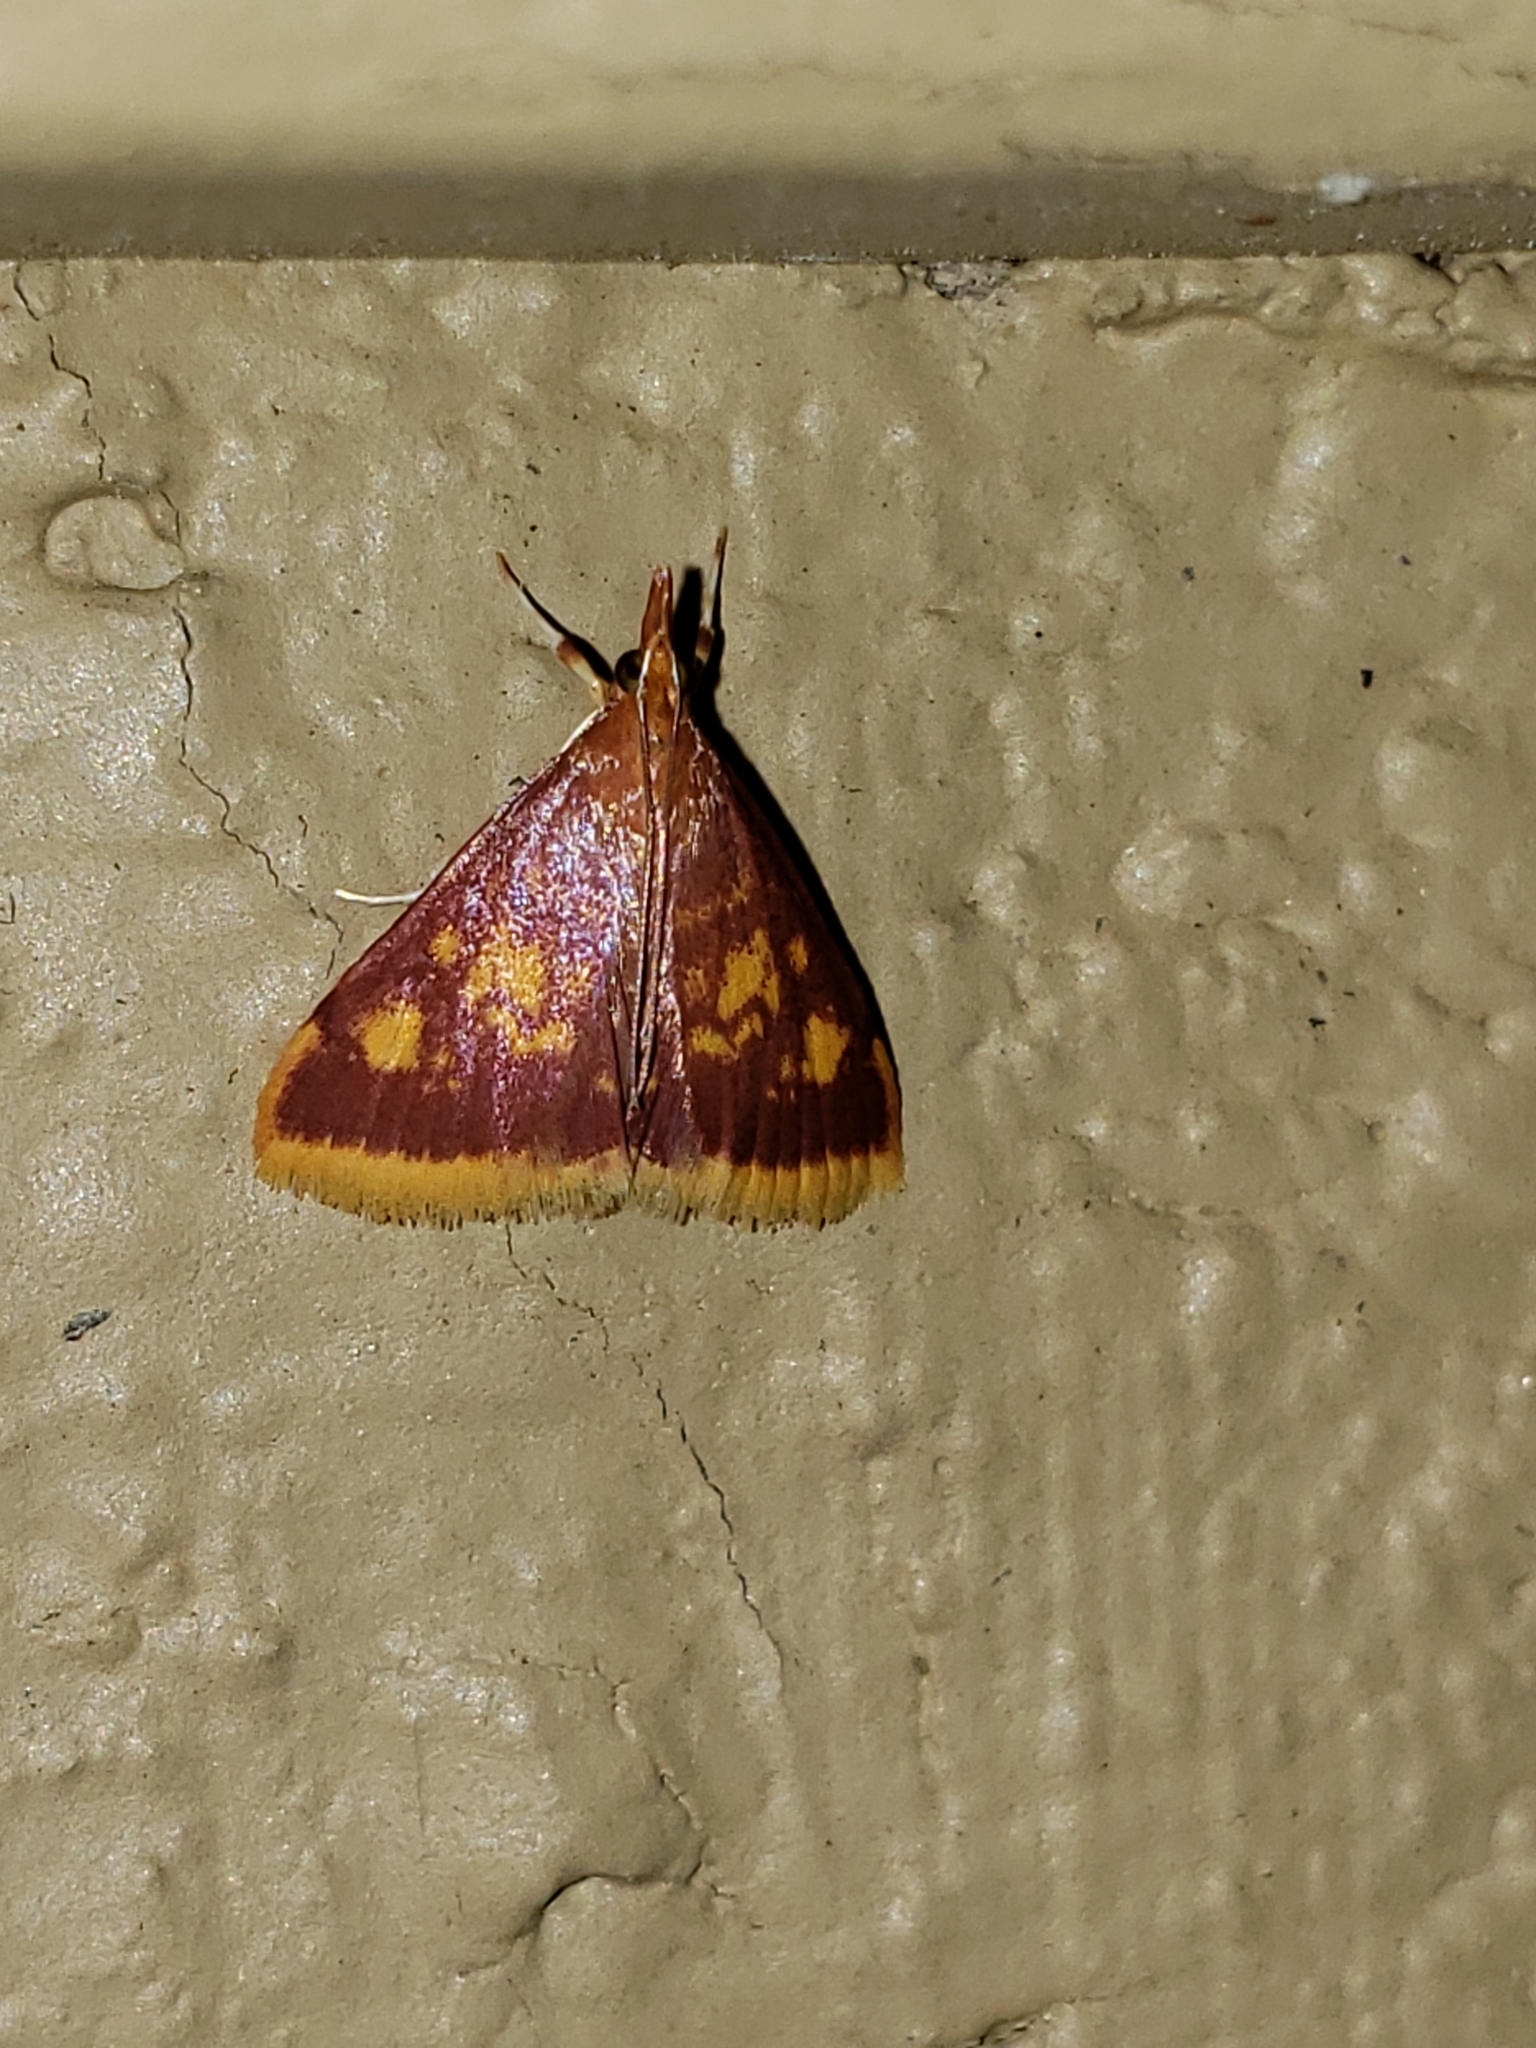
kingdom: Animalia
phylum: Arthropoda
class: Insecta
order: Lepidoptera
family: Crambidae
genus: Pyrausta
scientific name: Pyrausta acrionalis
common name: Mint-loving pyrausta moth
